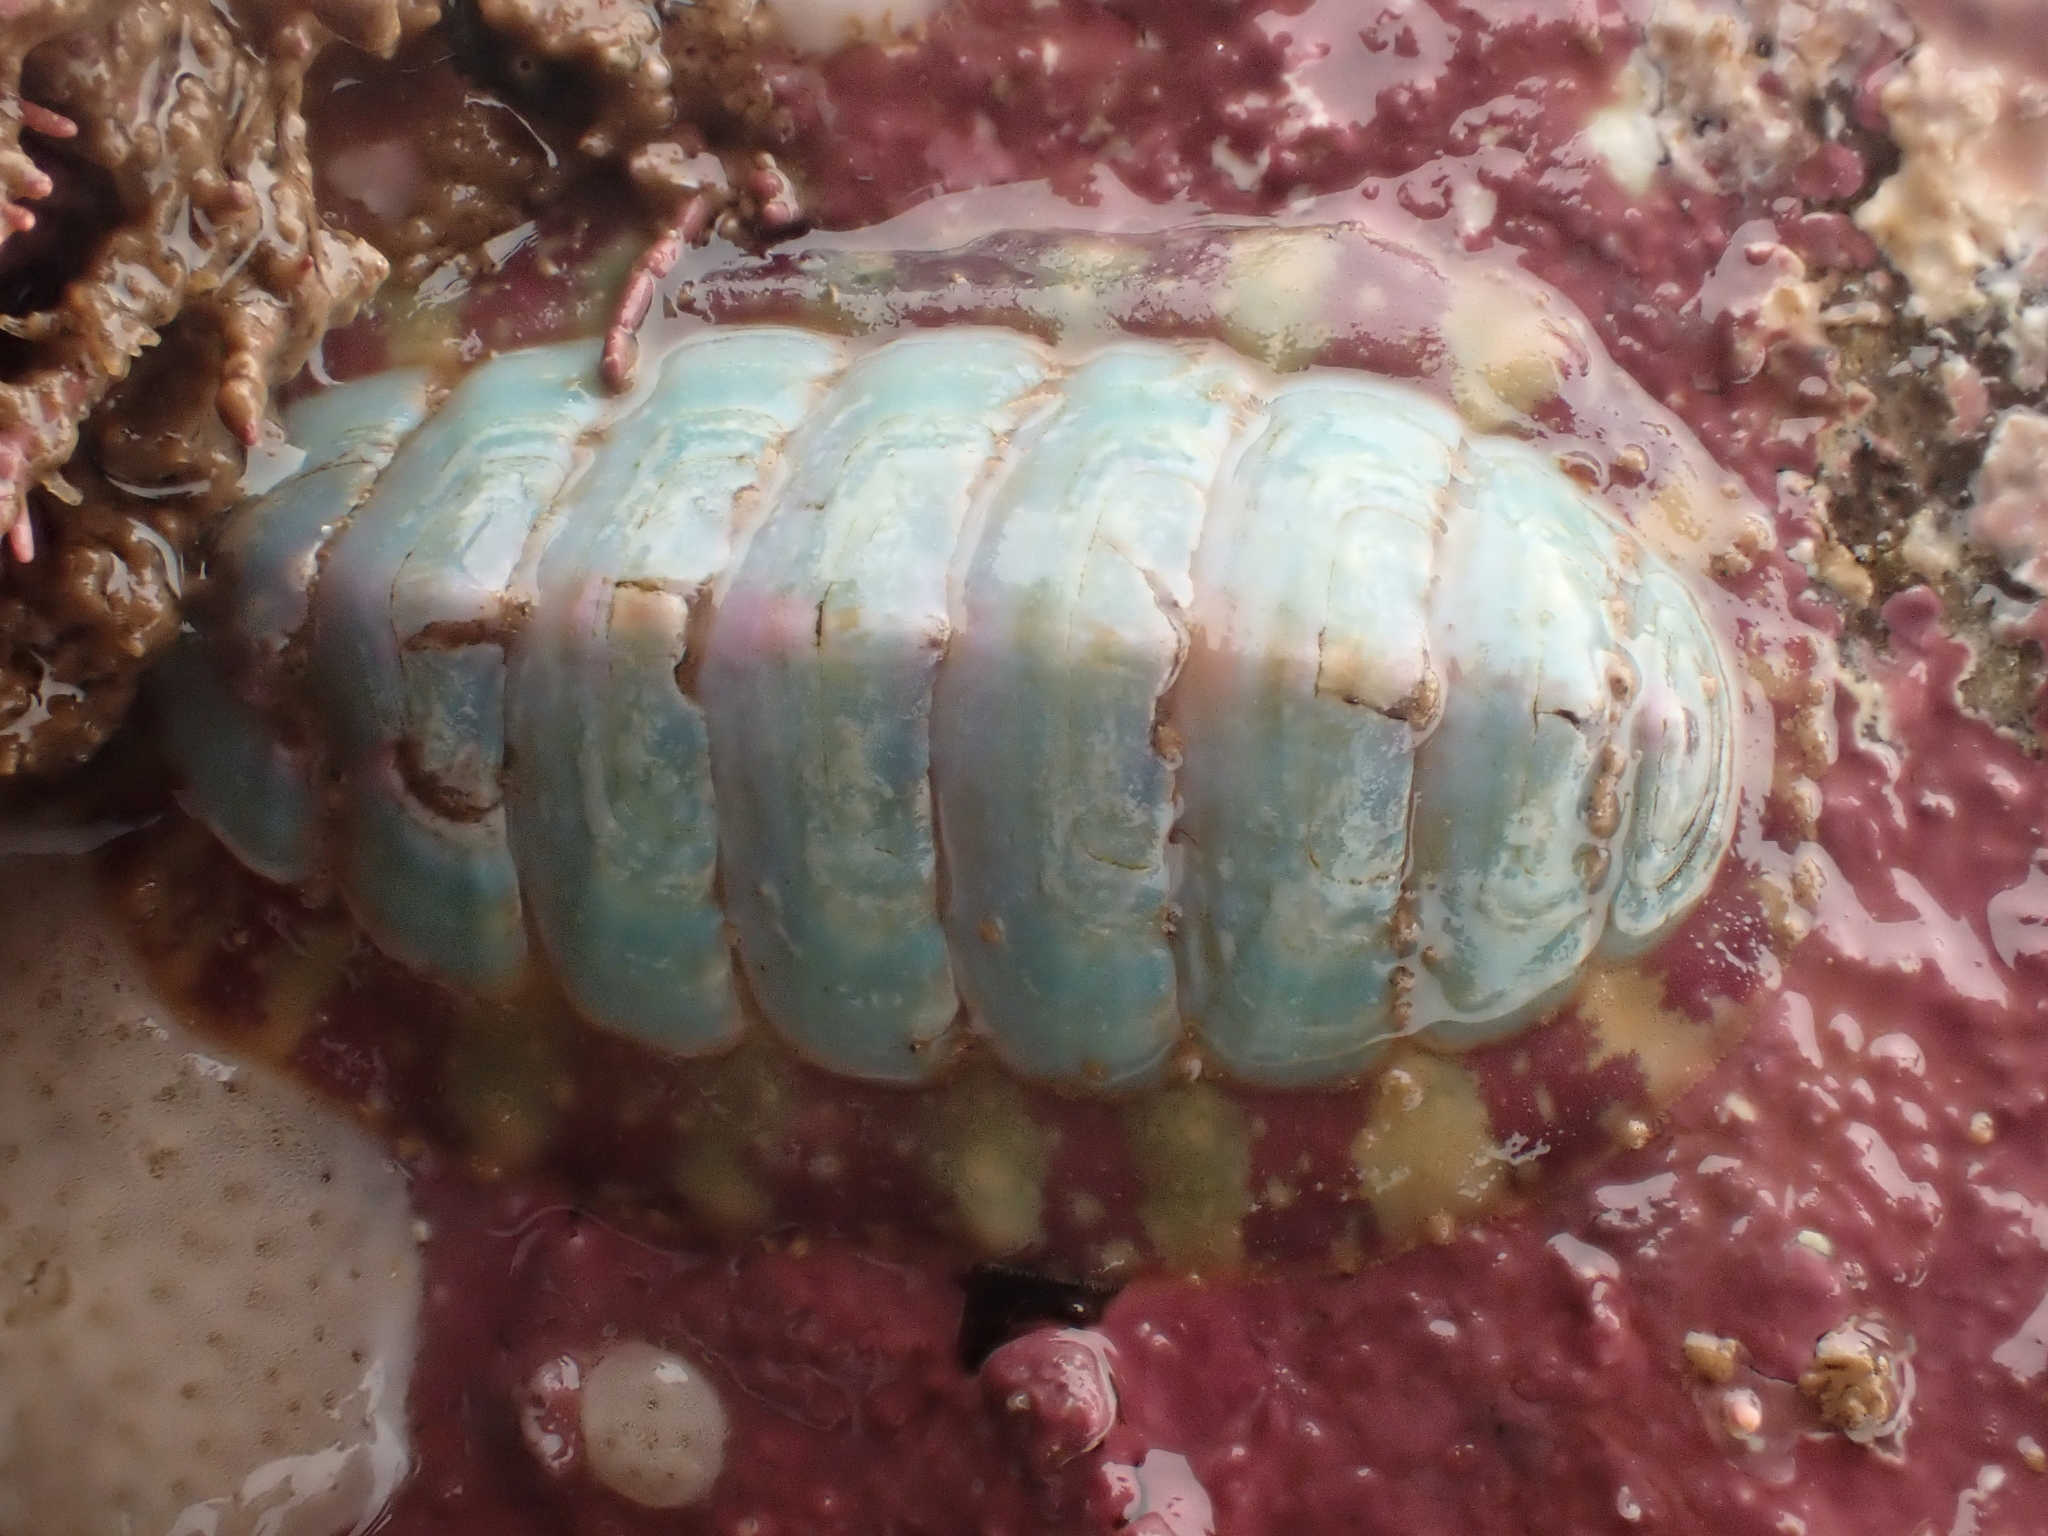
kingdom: Animalia
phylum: Mollusca
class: Polyplacophora
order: Chitonida
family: Tonicellidae
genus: Tonicella
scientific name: Tonicella marmorea
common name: Lined red chiton
